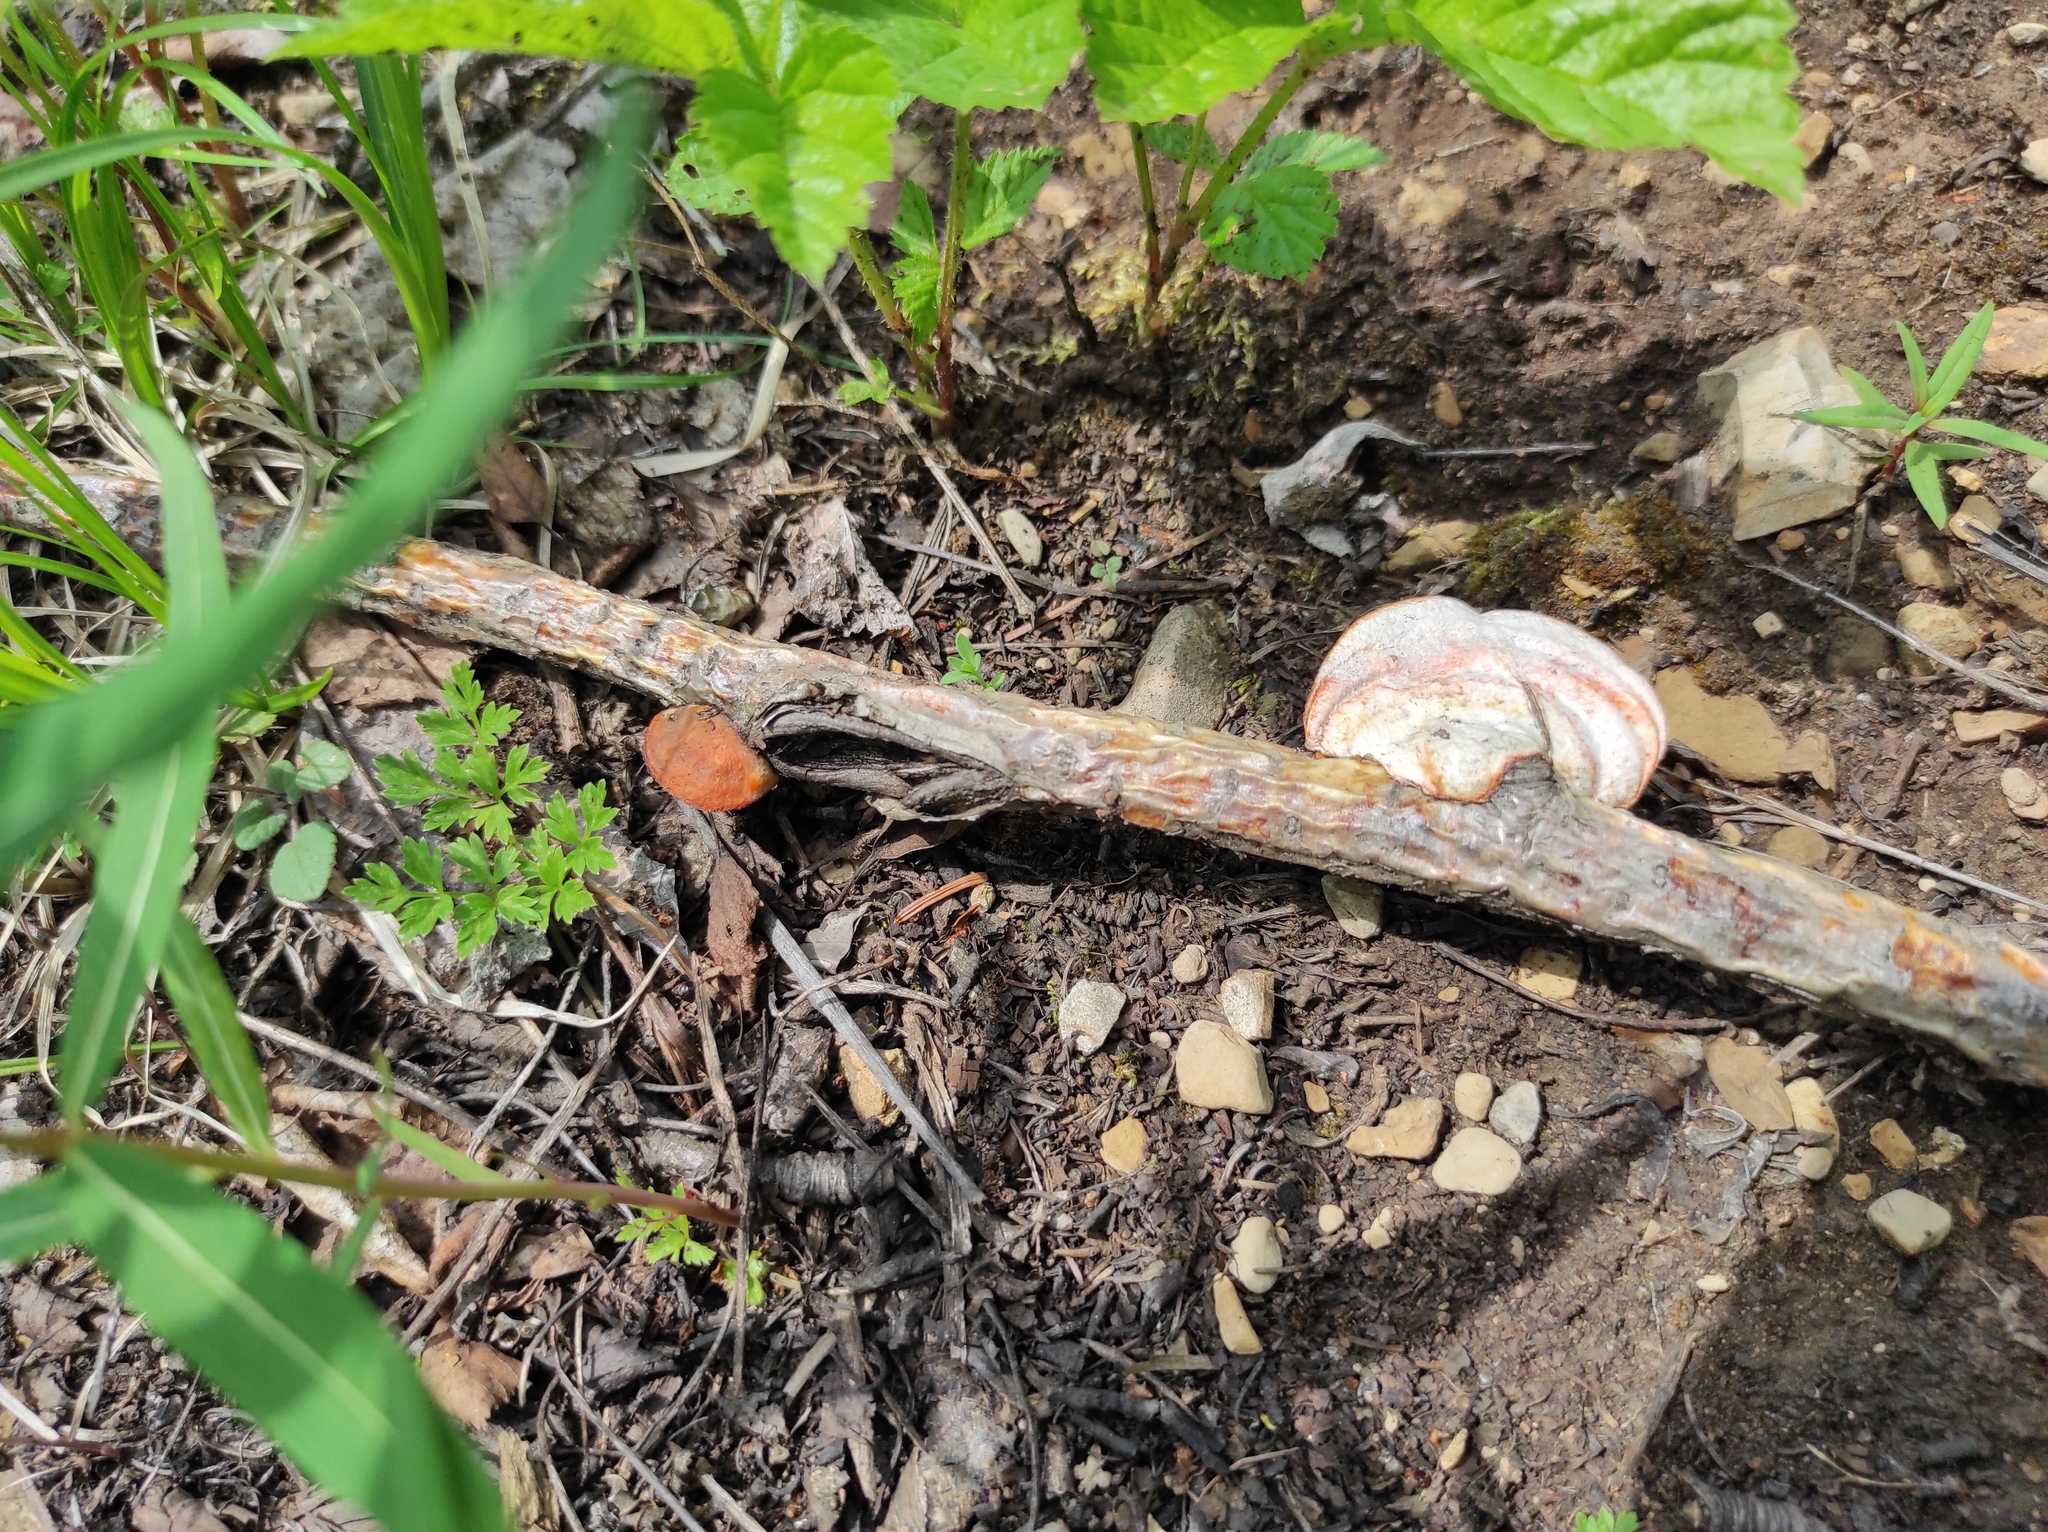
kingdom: Plantae
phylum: Tracheophyta
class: Magnoliopsida
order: Rosales
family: Rosaceae
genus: Rubus
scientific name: Rubus saxatilis
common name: Stone bramble
